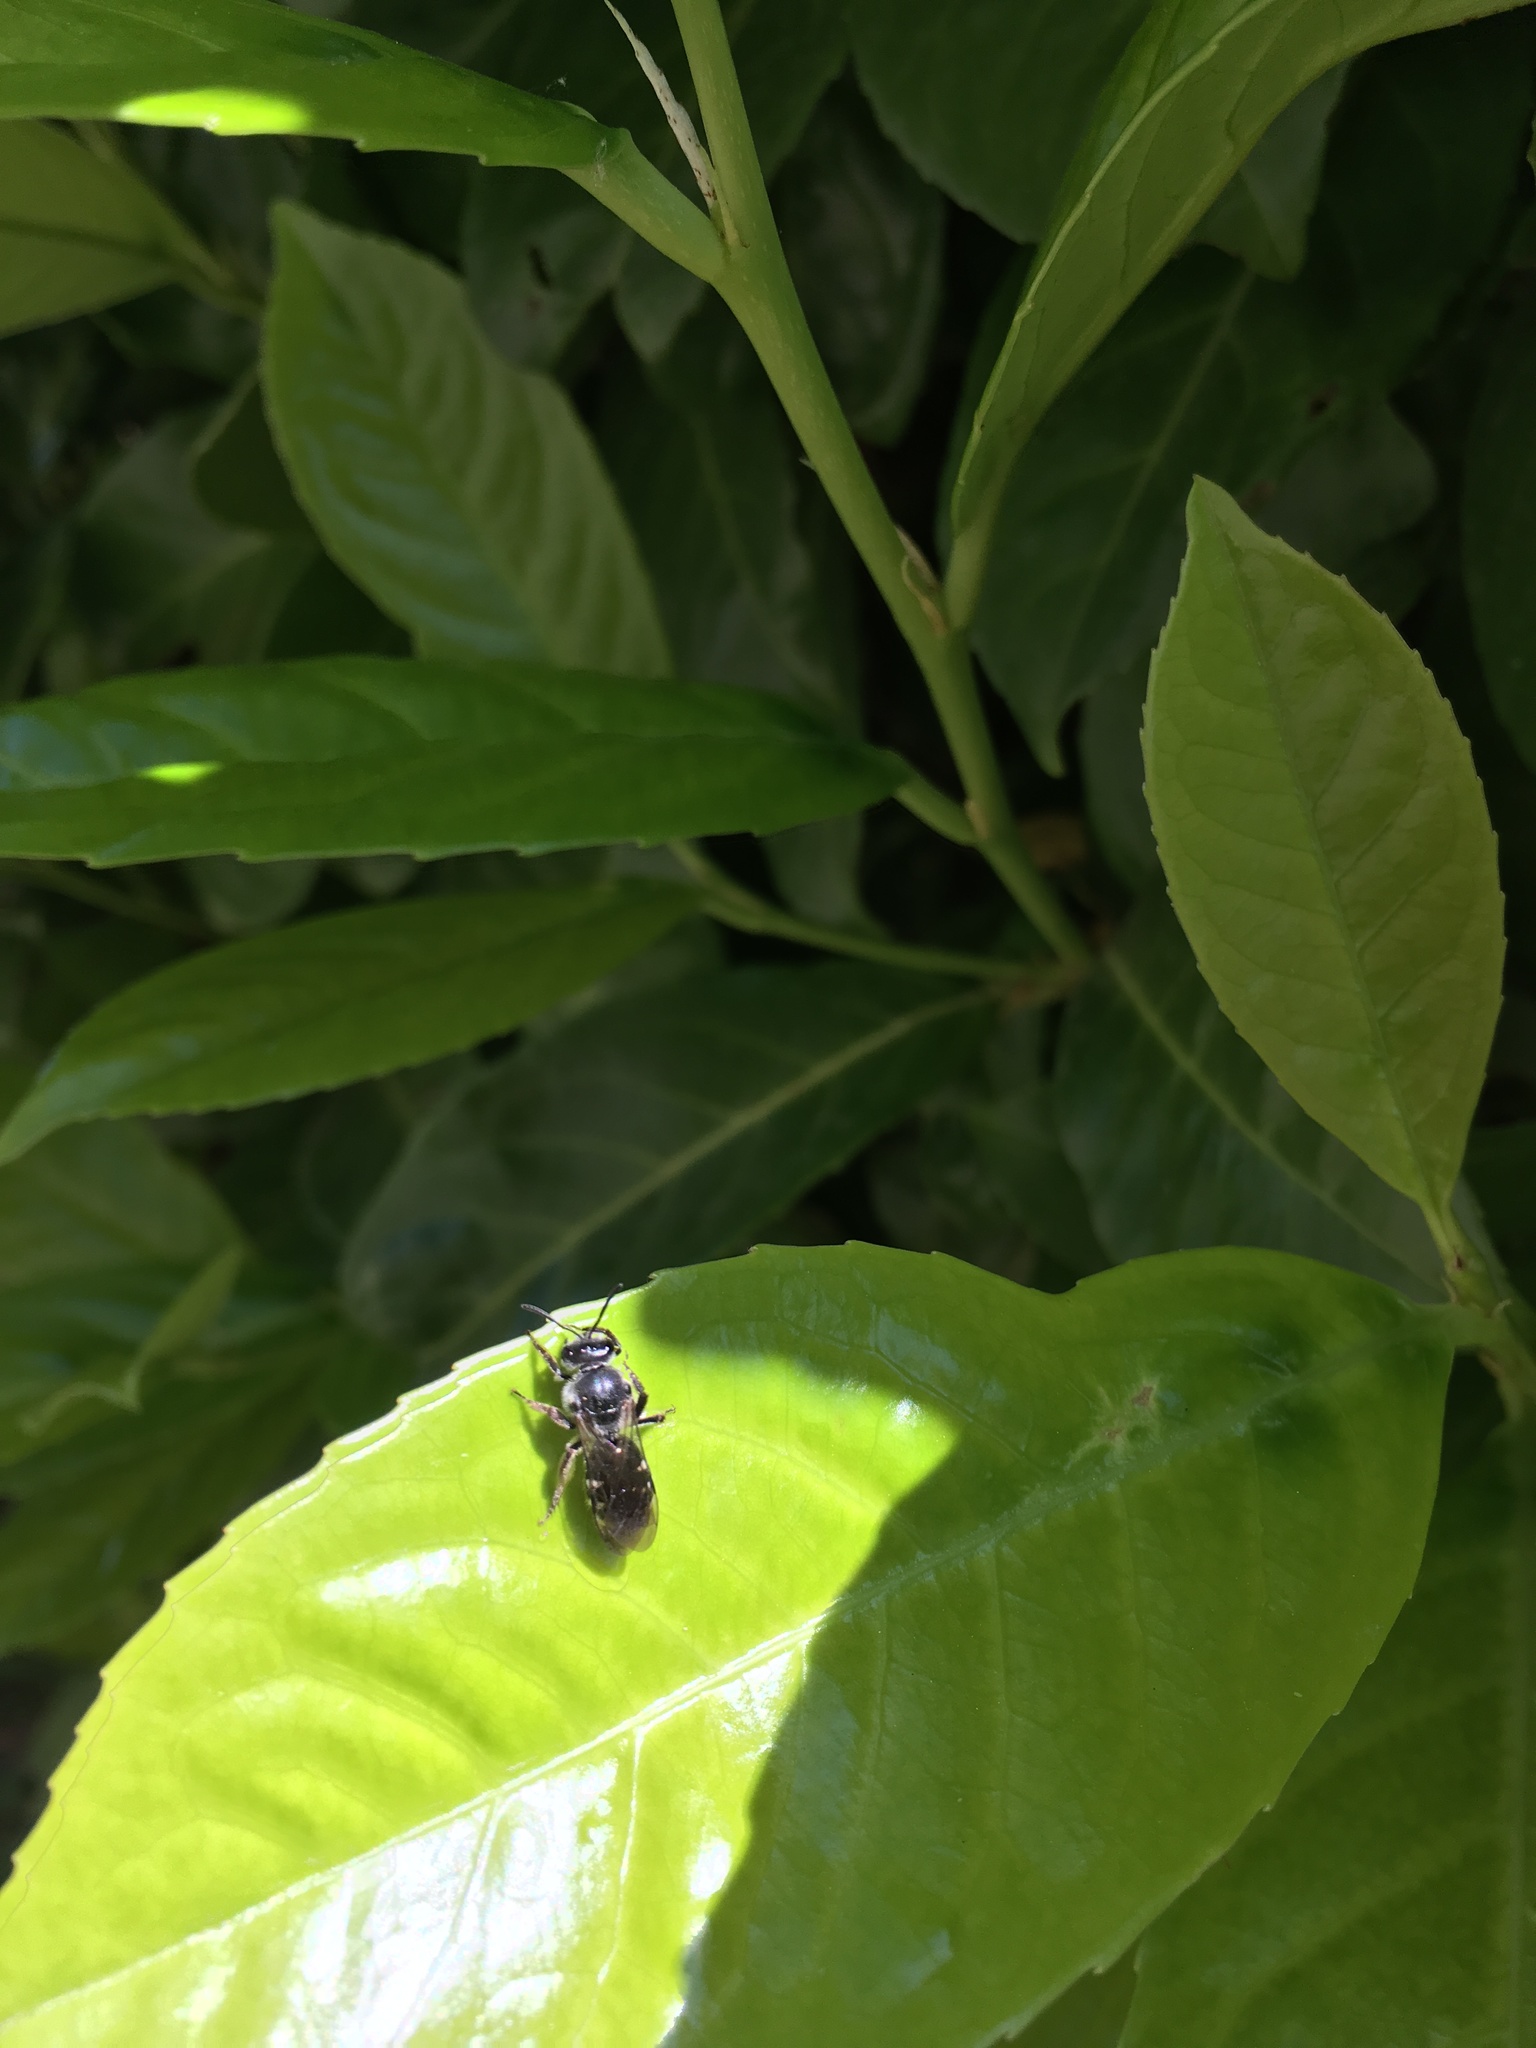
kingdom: Animalia
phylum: Arthropoda
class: Insecta
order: Hymenoptera
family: Halictidae
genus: Lasioglossum
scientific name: Lasioglossum sexnotatum
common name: Ashy furrow bee
